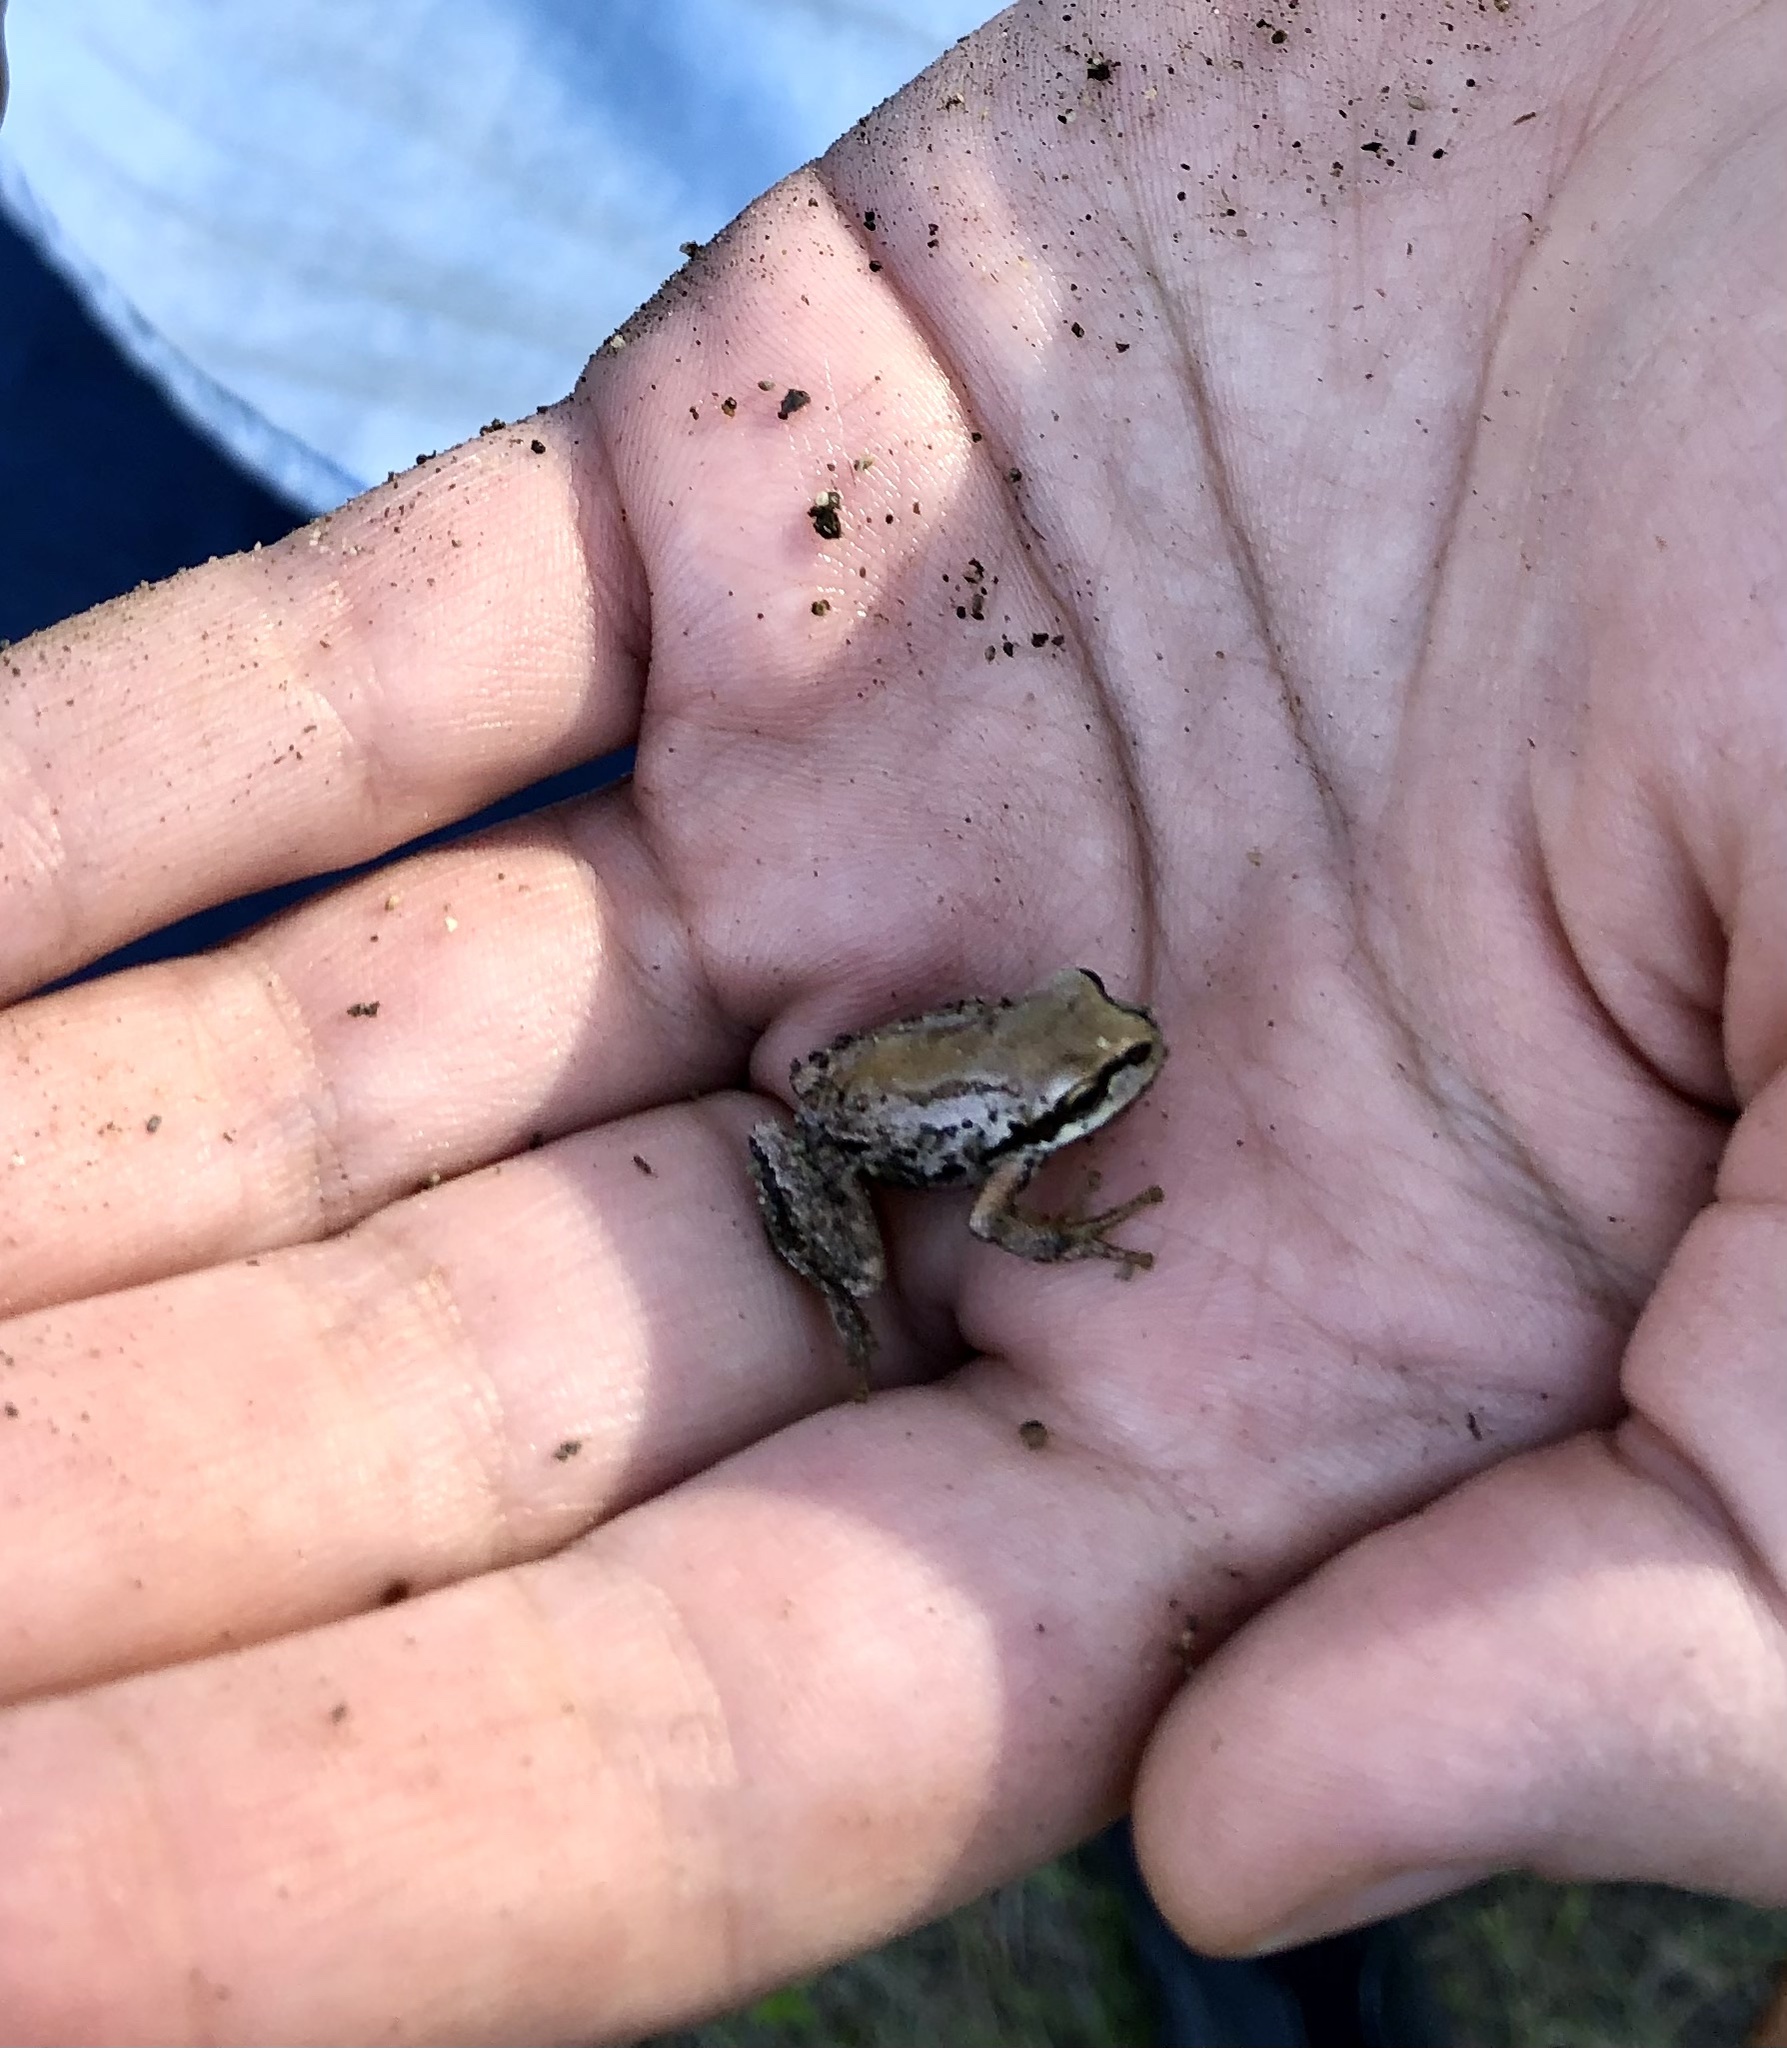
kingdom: Animalia
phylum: Chordata
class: Amphibia
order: Anura
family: Hylidae
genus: Pseudacris
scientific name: Pseudacris regilla
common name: Pacific chorus frog
